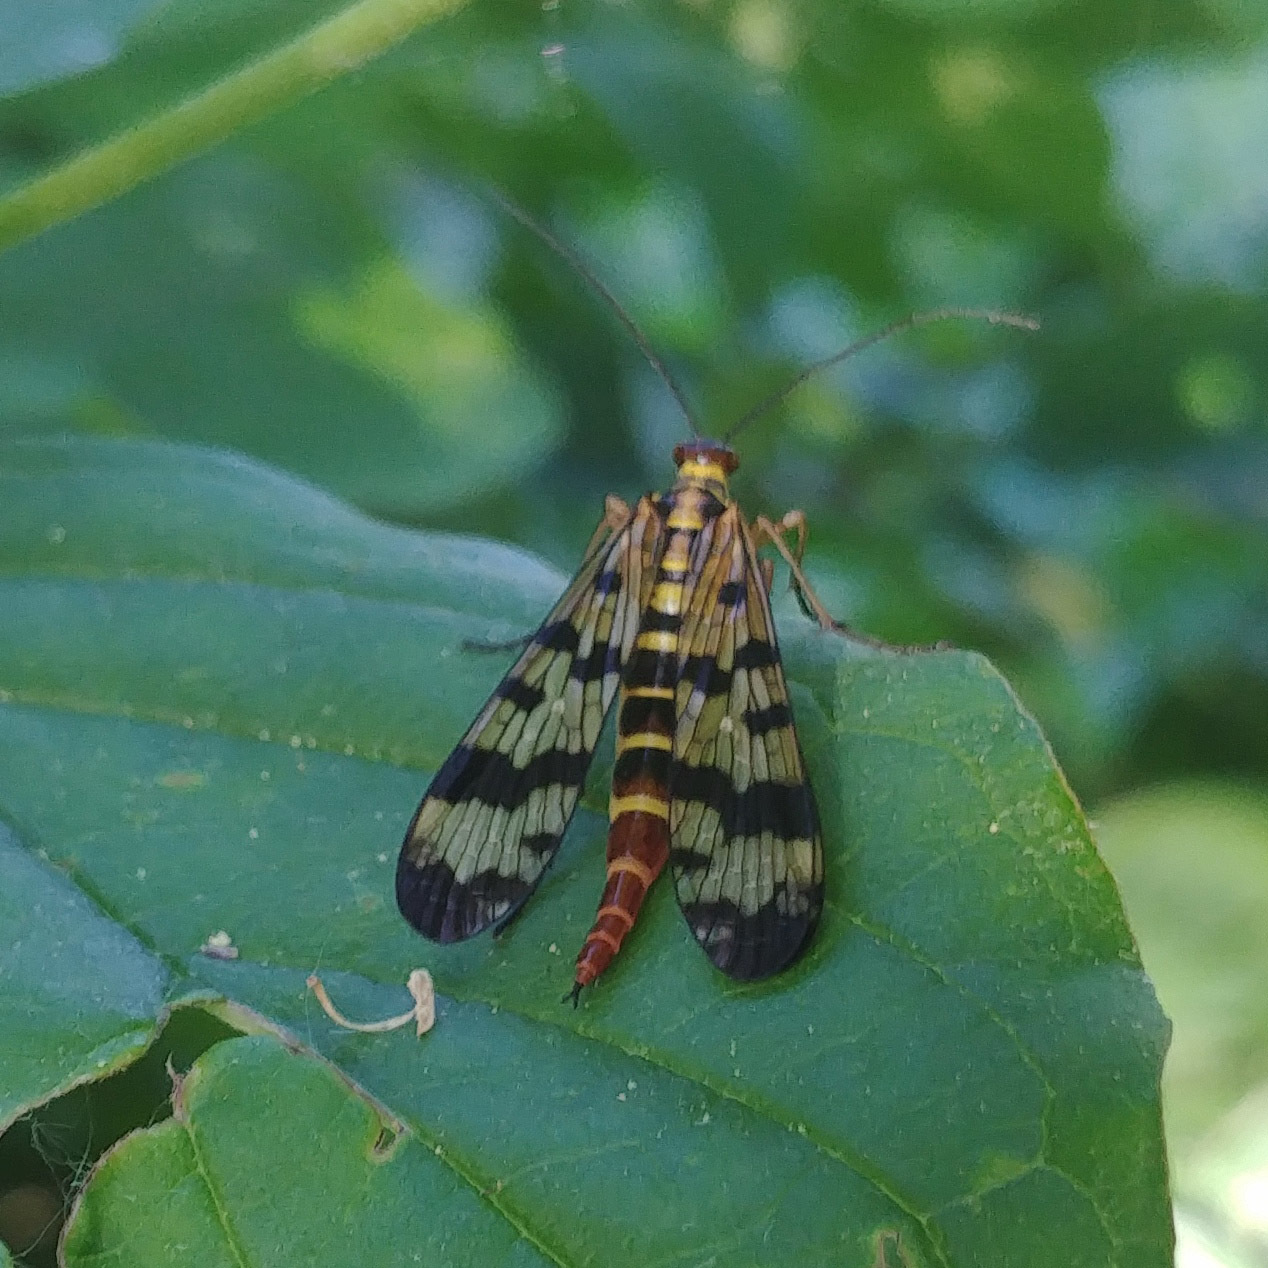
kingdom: Animalia
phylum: Arthropoda
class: Insecta
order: Mecoptera
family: Panorpidae
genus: Panorpa
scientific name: Panorpa communis
